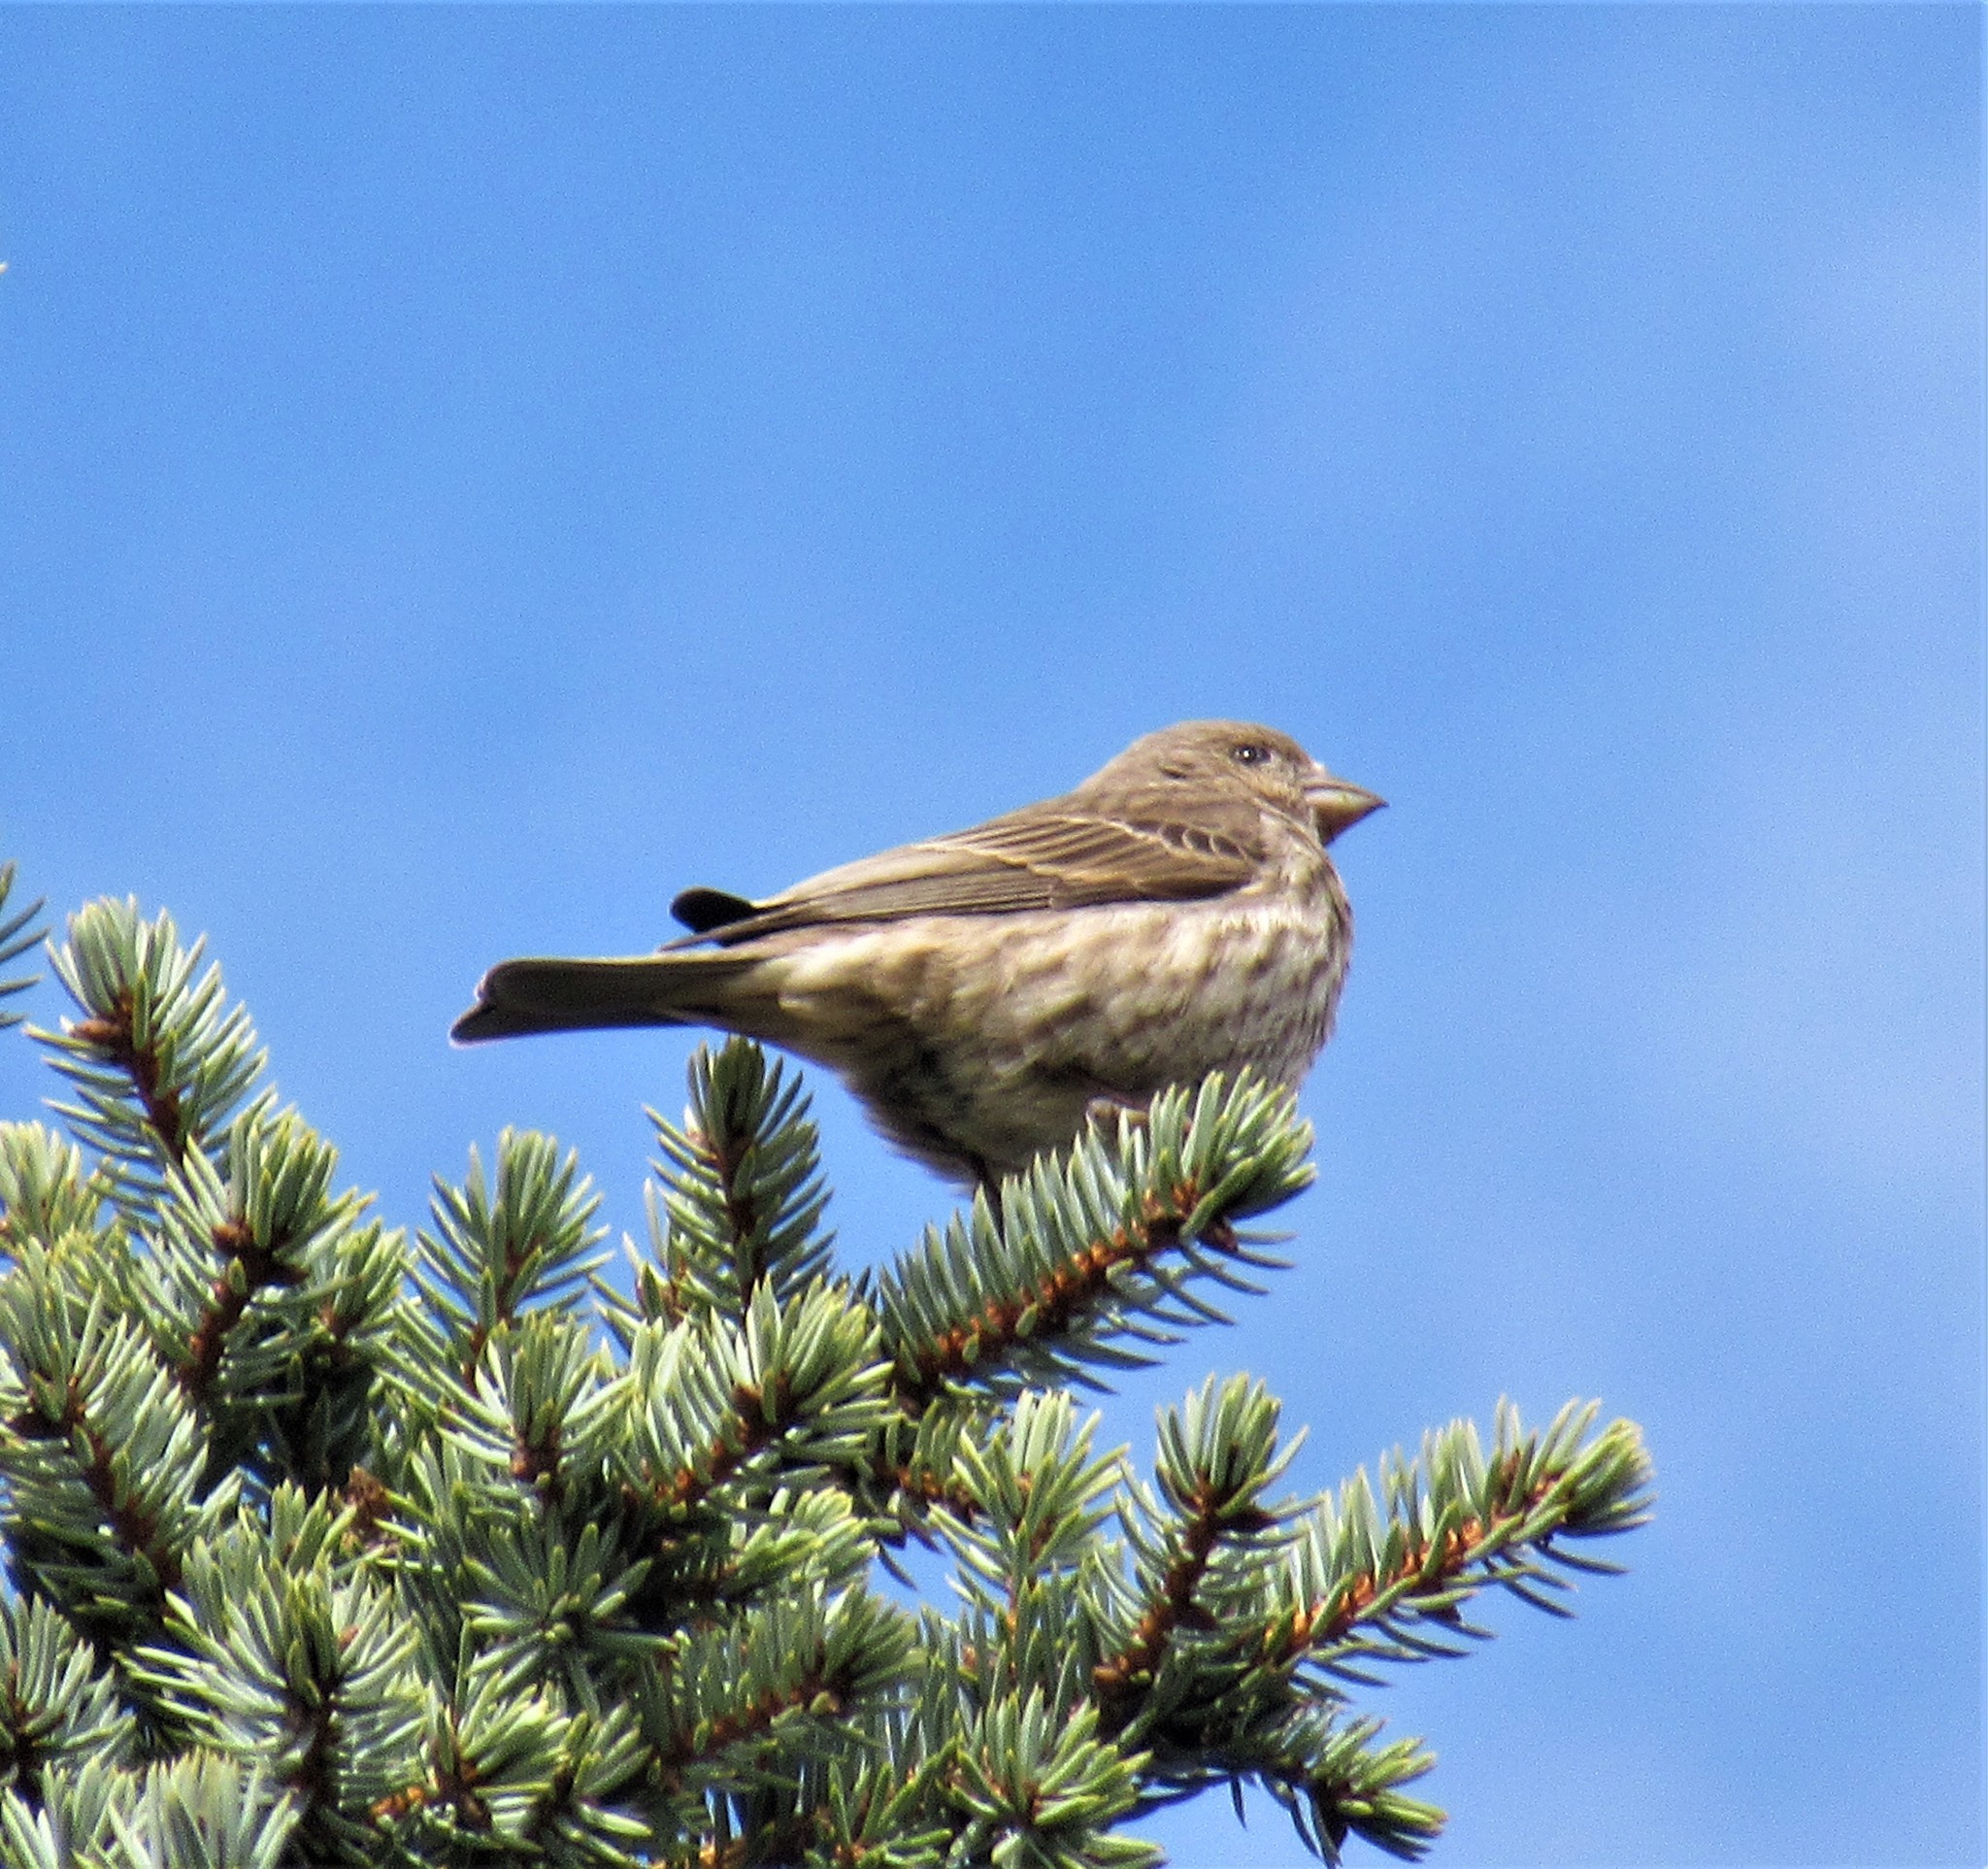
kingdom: Animalia
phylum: Chordata
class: Aves
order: Passeriformes
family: Fringillidae
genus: Haemorhous
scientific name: Haemorhous mexicanus
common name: House finch
